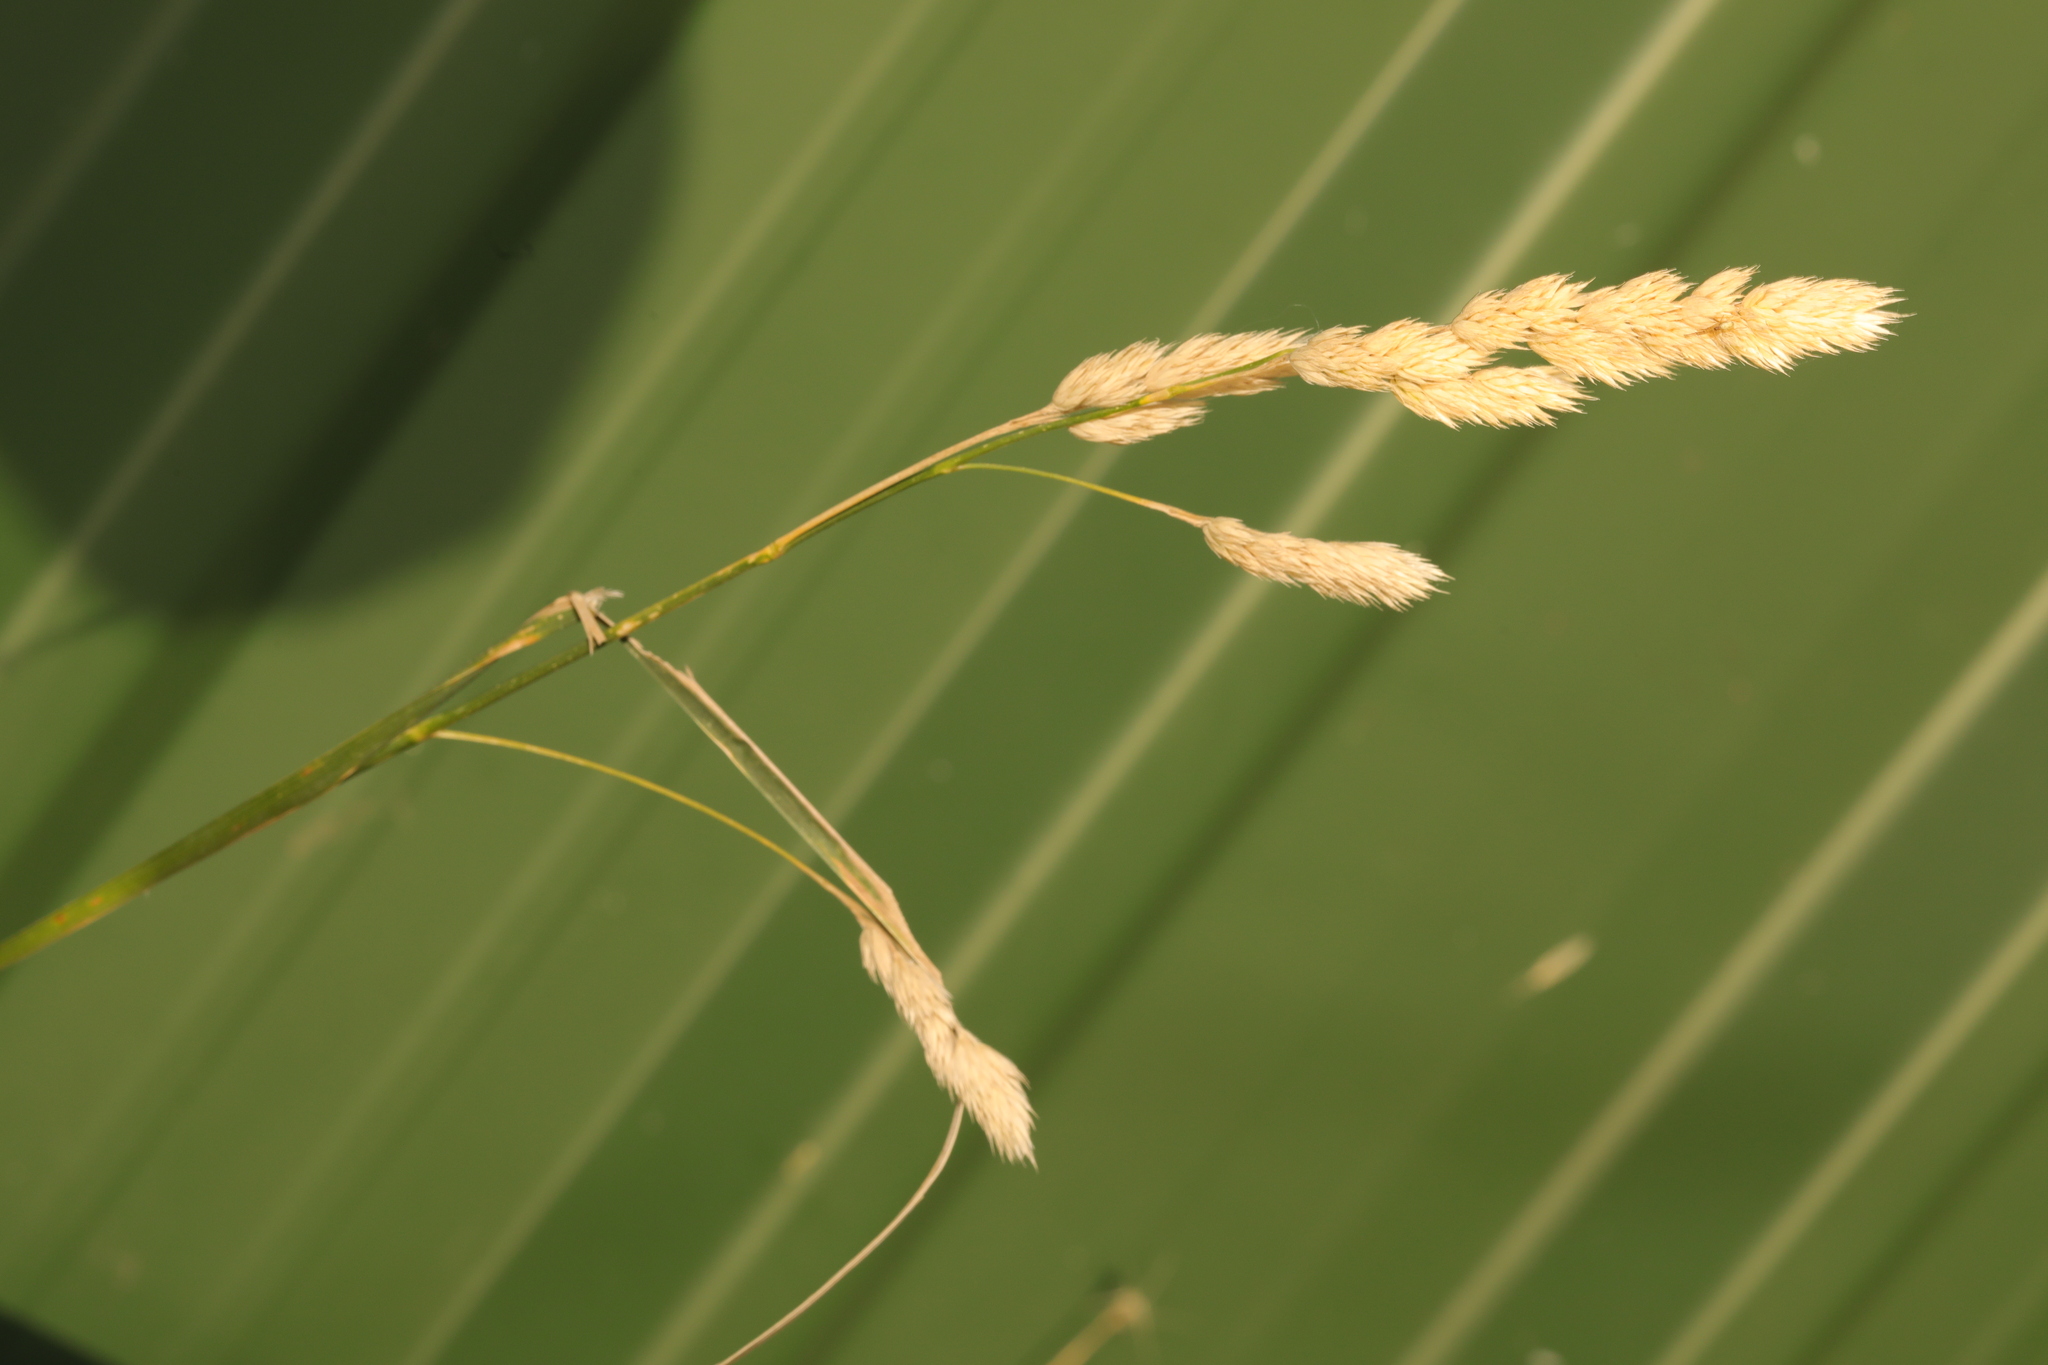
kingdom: Plantae
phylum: Tracheophyta
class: Liliopsida
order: Poales
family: Poaceae
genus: Dactylis
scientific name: Dactylis glomerata
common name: Orchardgrass
